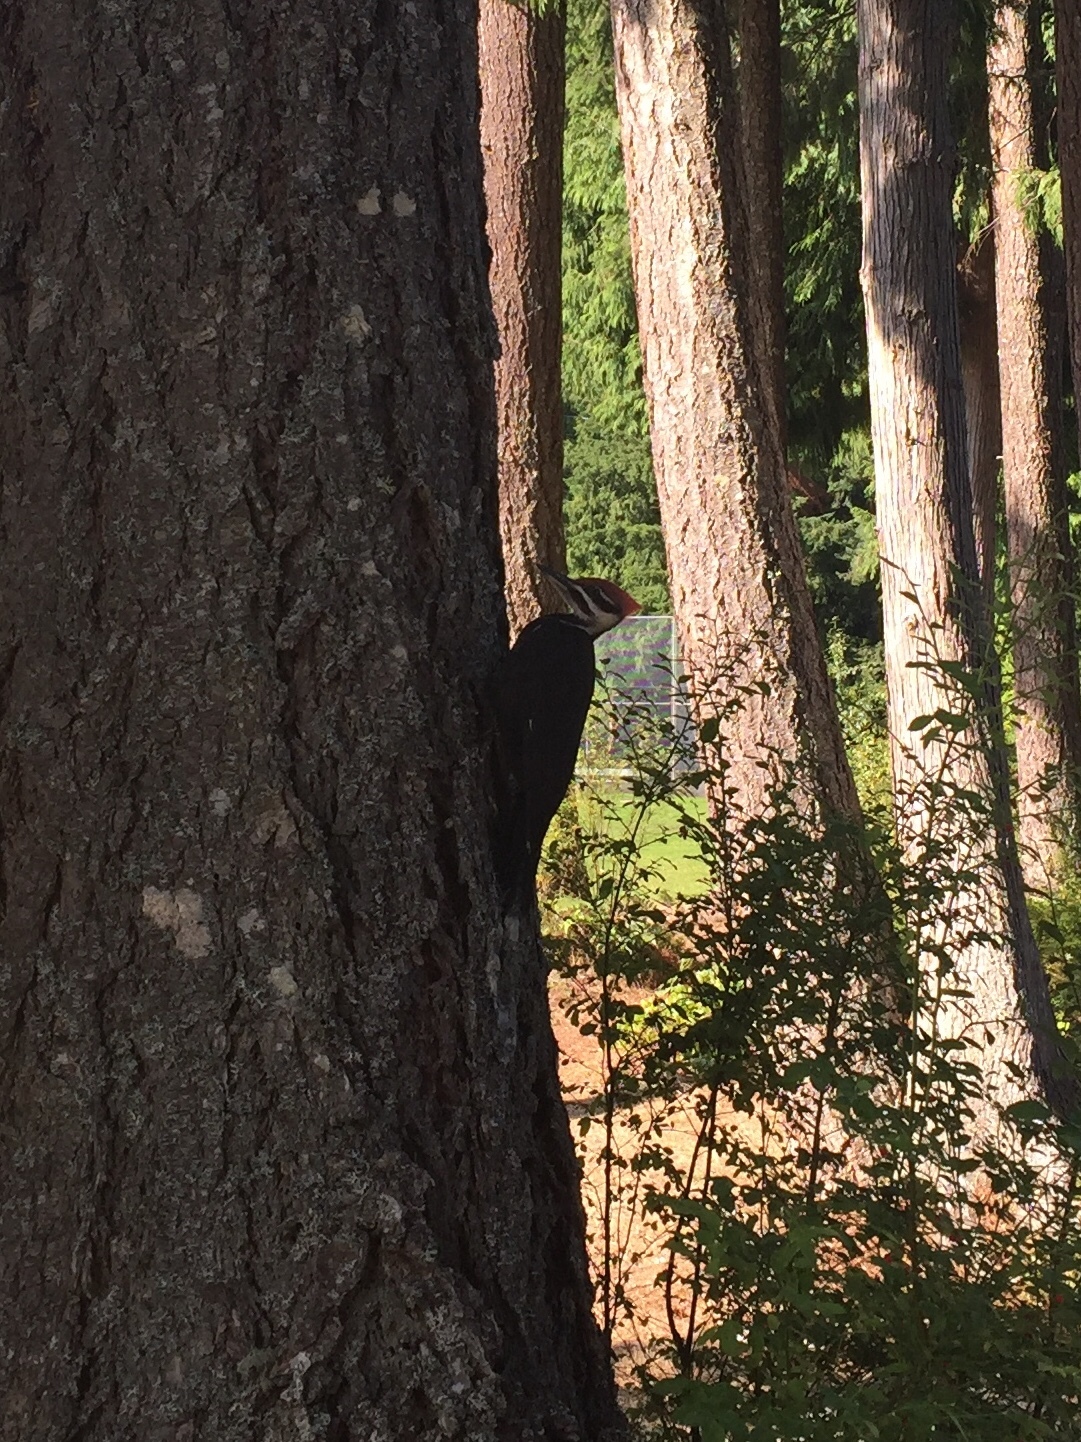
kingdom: Animalia
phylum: Chordata
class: Aves
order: Piciformes
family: Picidae
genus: Dryocopus
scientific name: Dryocopus pileatus
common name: Pileated woodpecker
